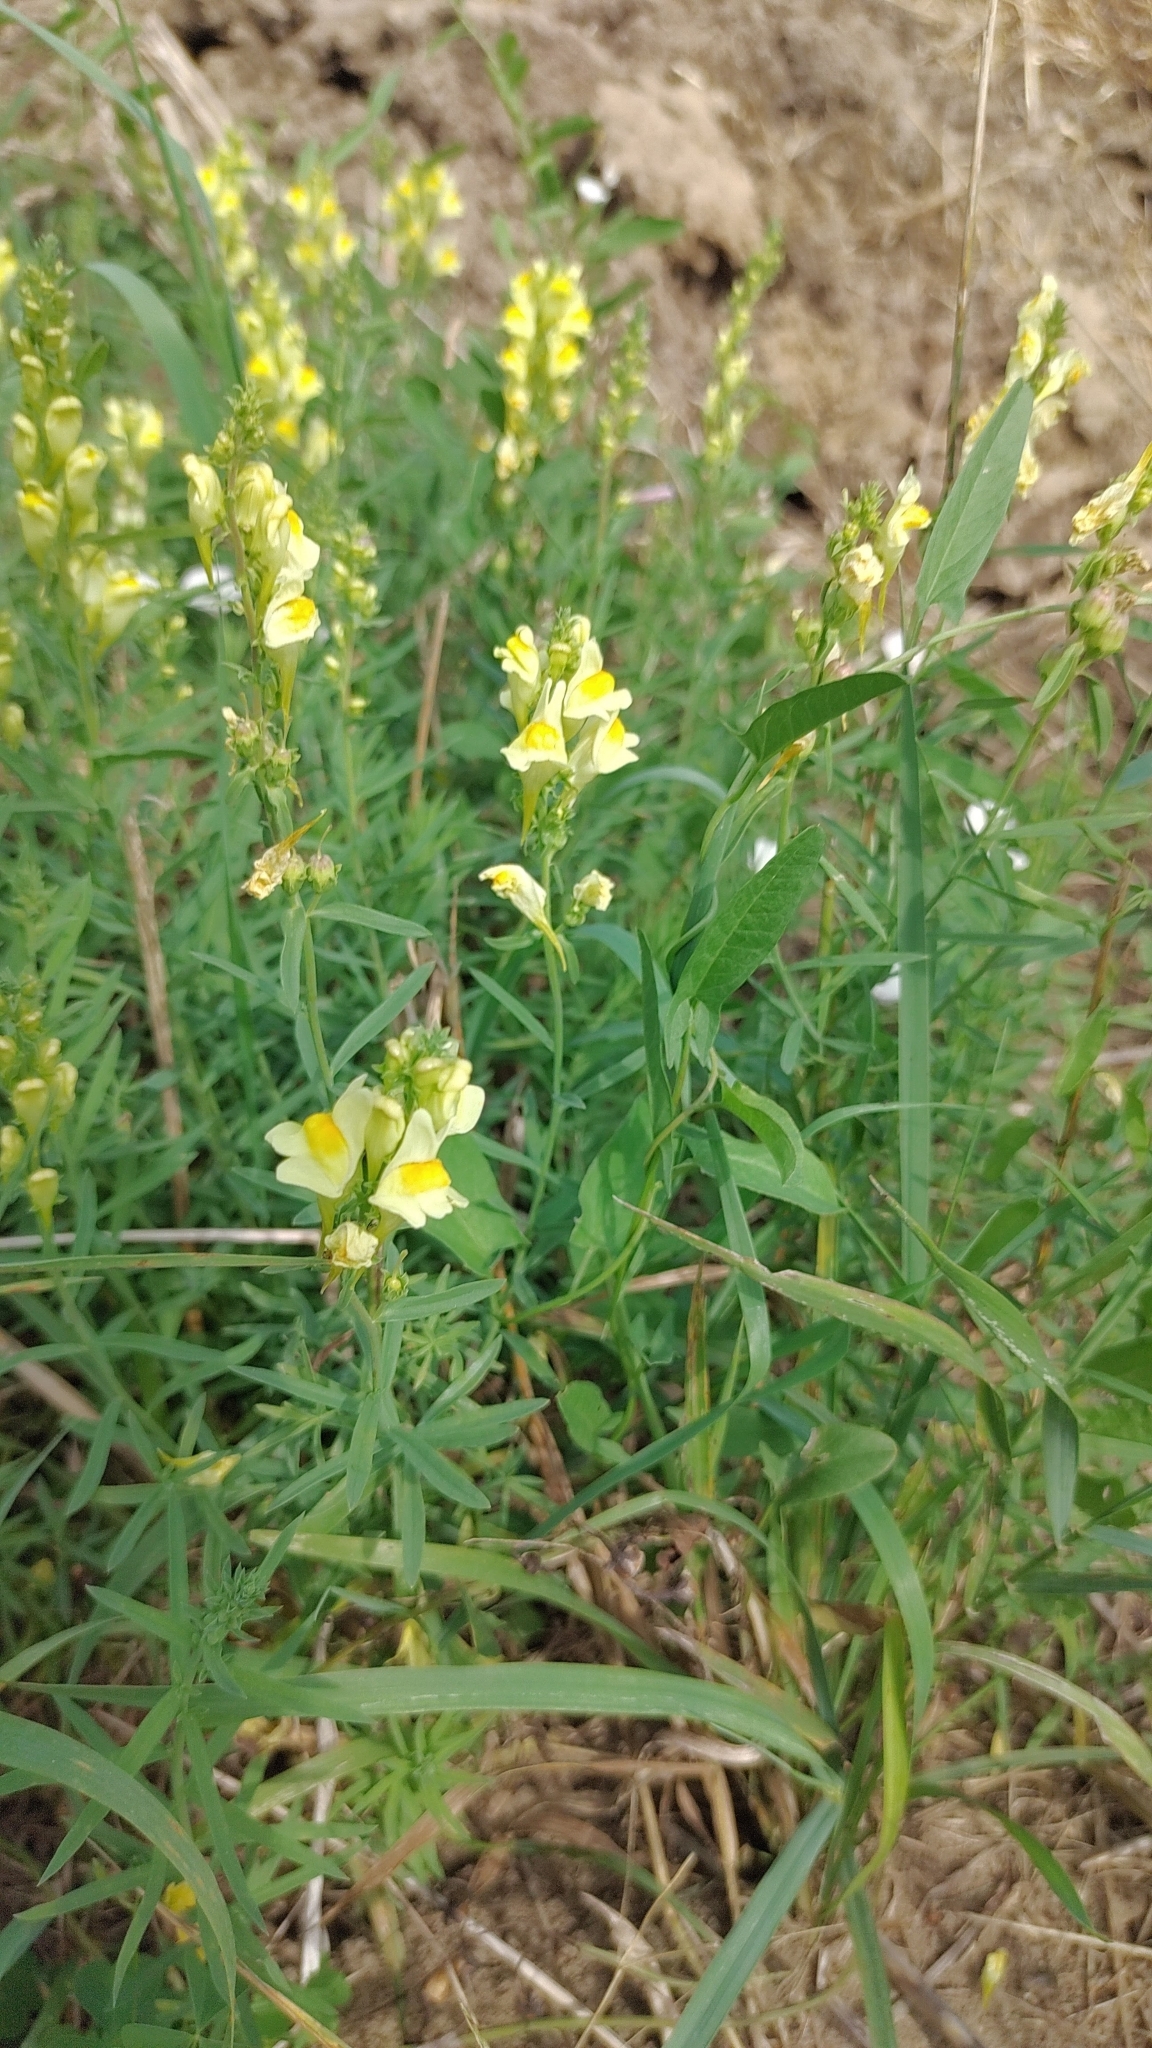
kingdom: Plantae
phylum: Tracheophyta
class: Magnoliopsida
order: Lamiales
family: Plantaginaceae
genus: Linaria
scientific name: Linaria vulgaris
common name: Butter and eggs
